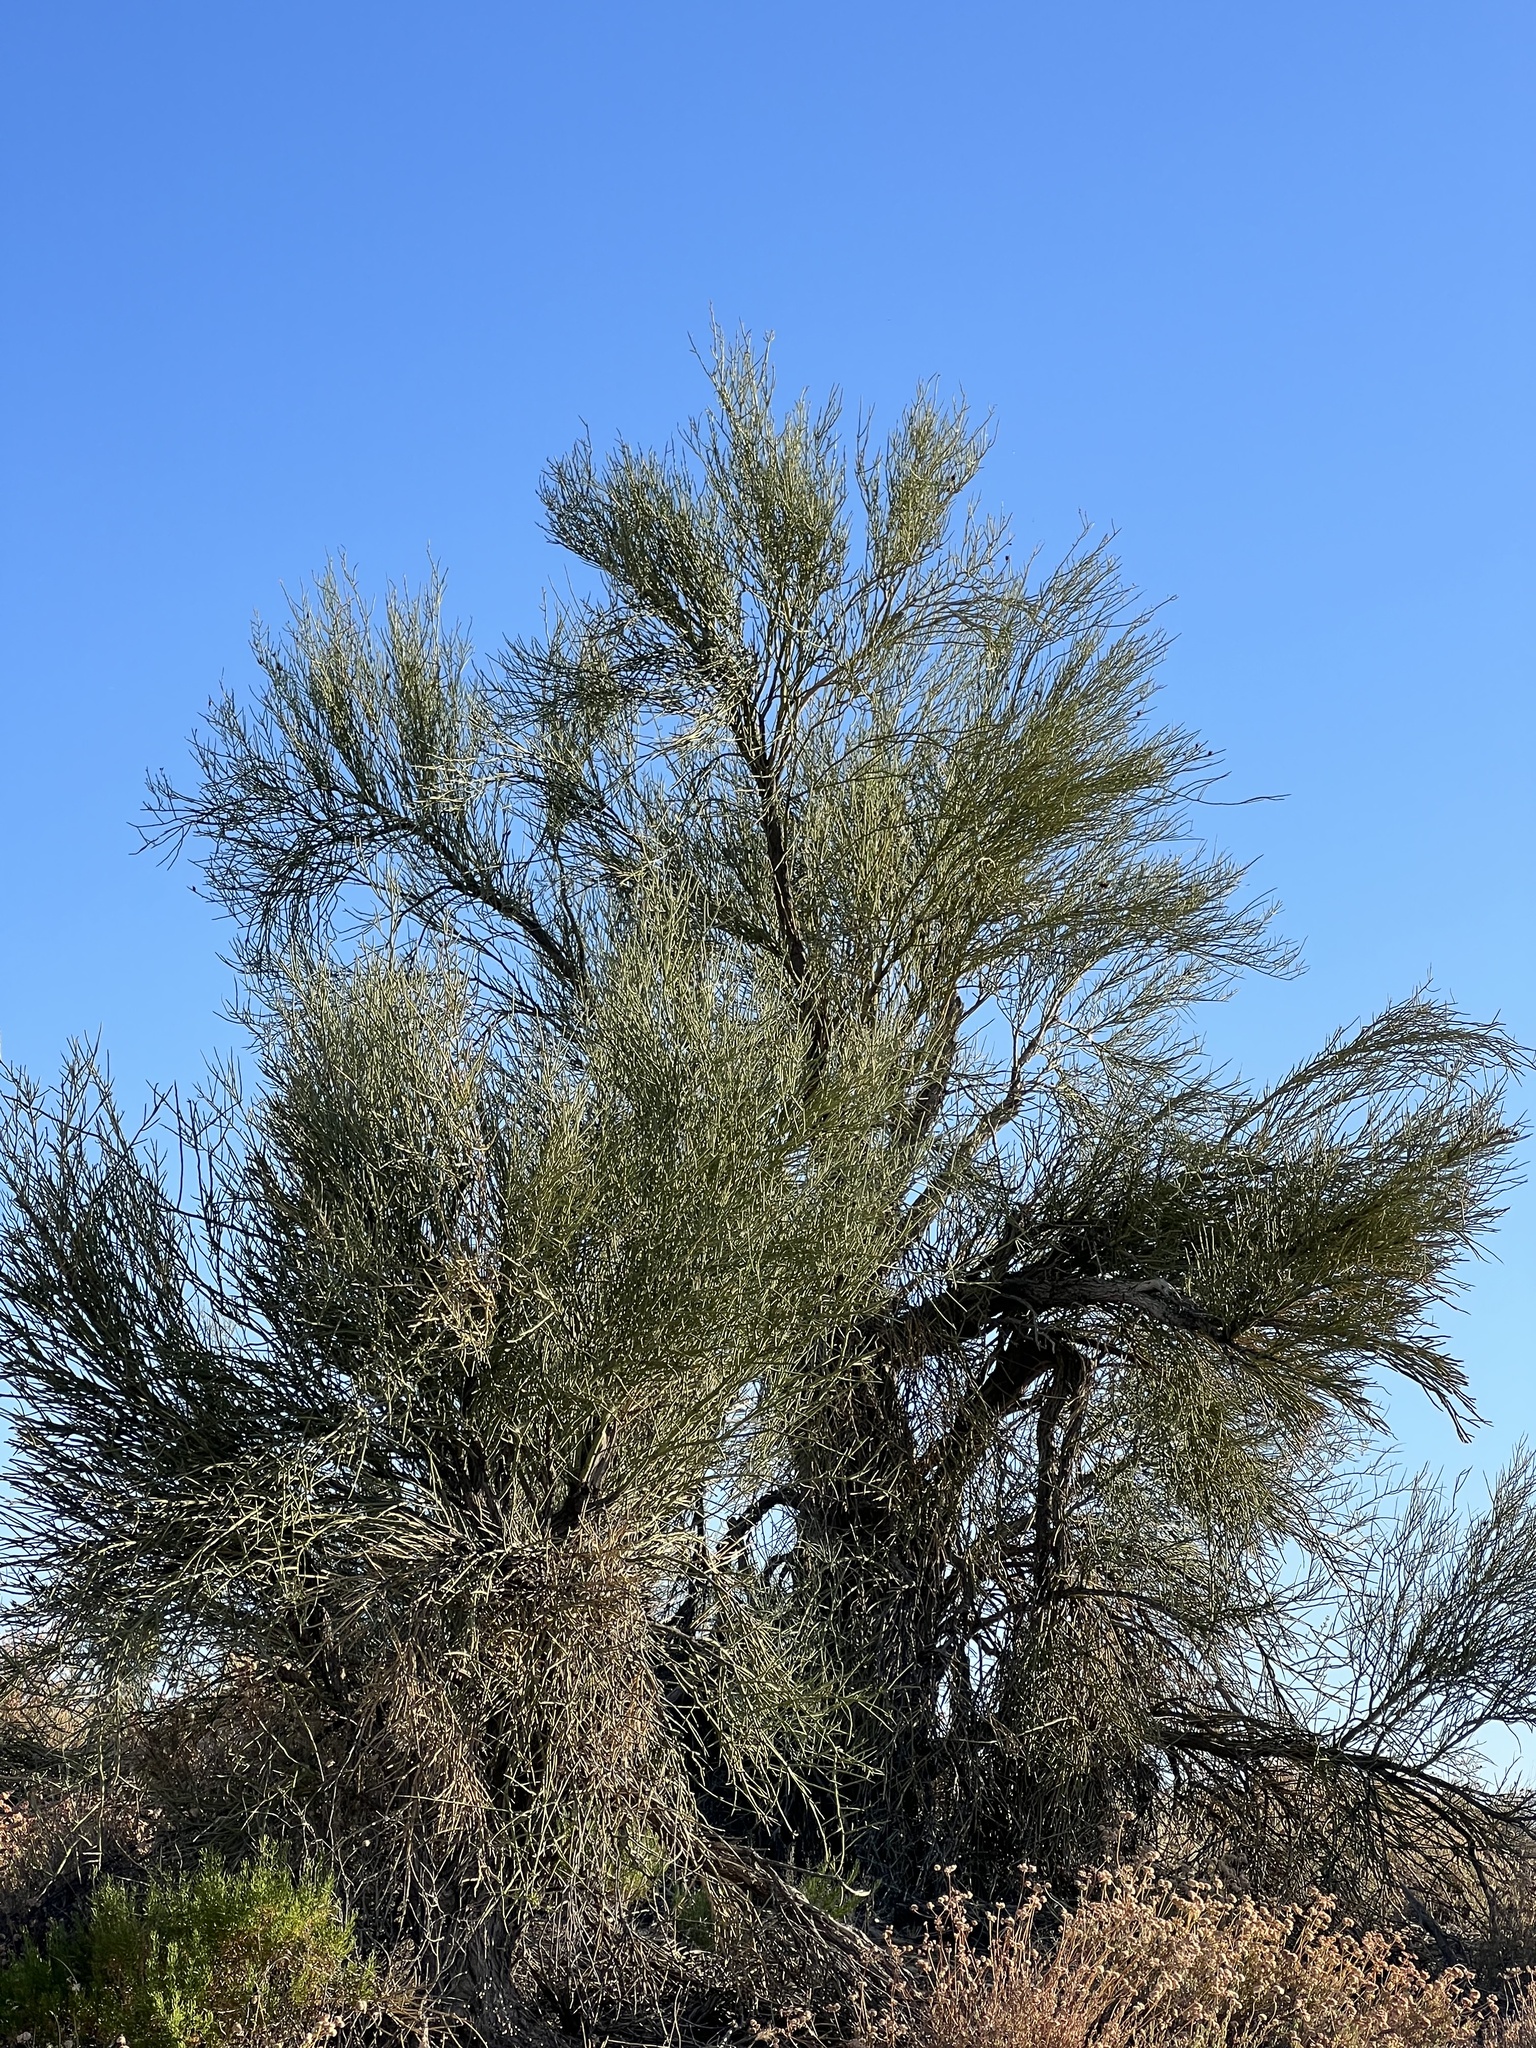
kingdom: Plantae
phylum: Tracheophyta
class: Magnoliopsida
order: Celastrales
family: Celastraceae
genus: Canotia
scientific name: Canotia holacantha
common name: Crucifixion thorns
